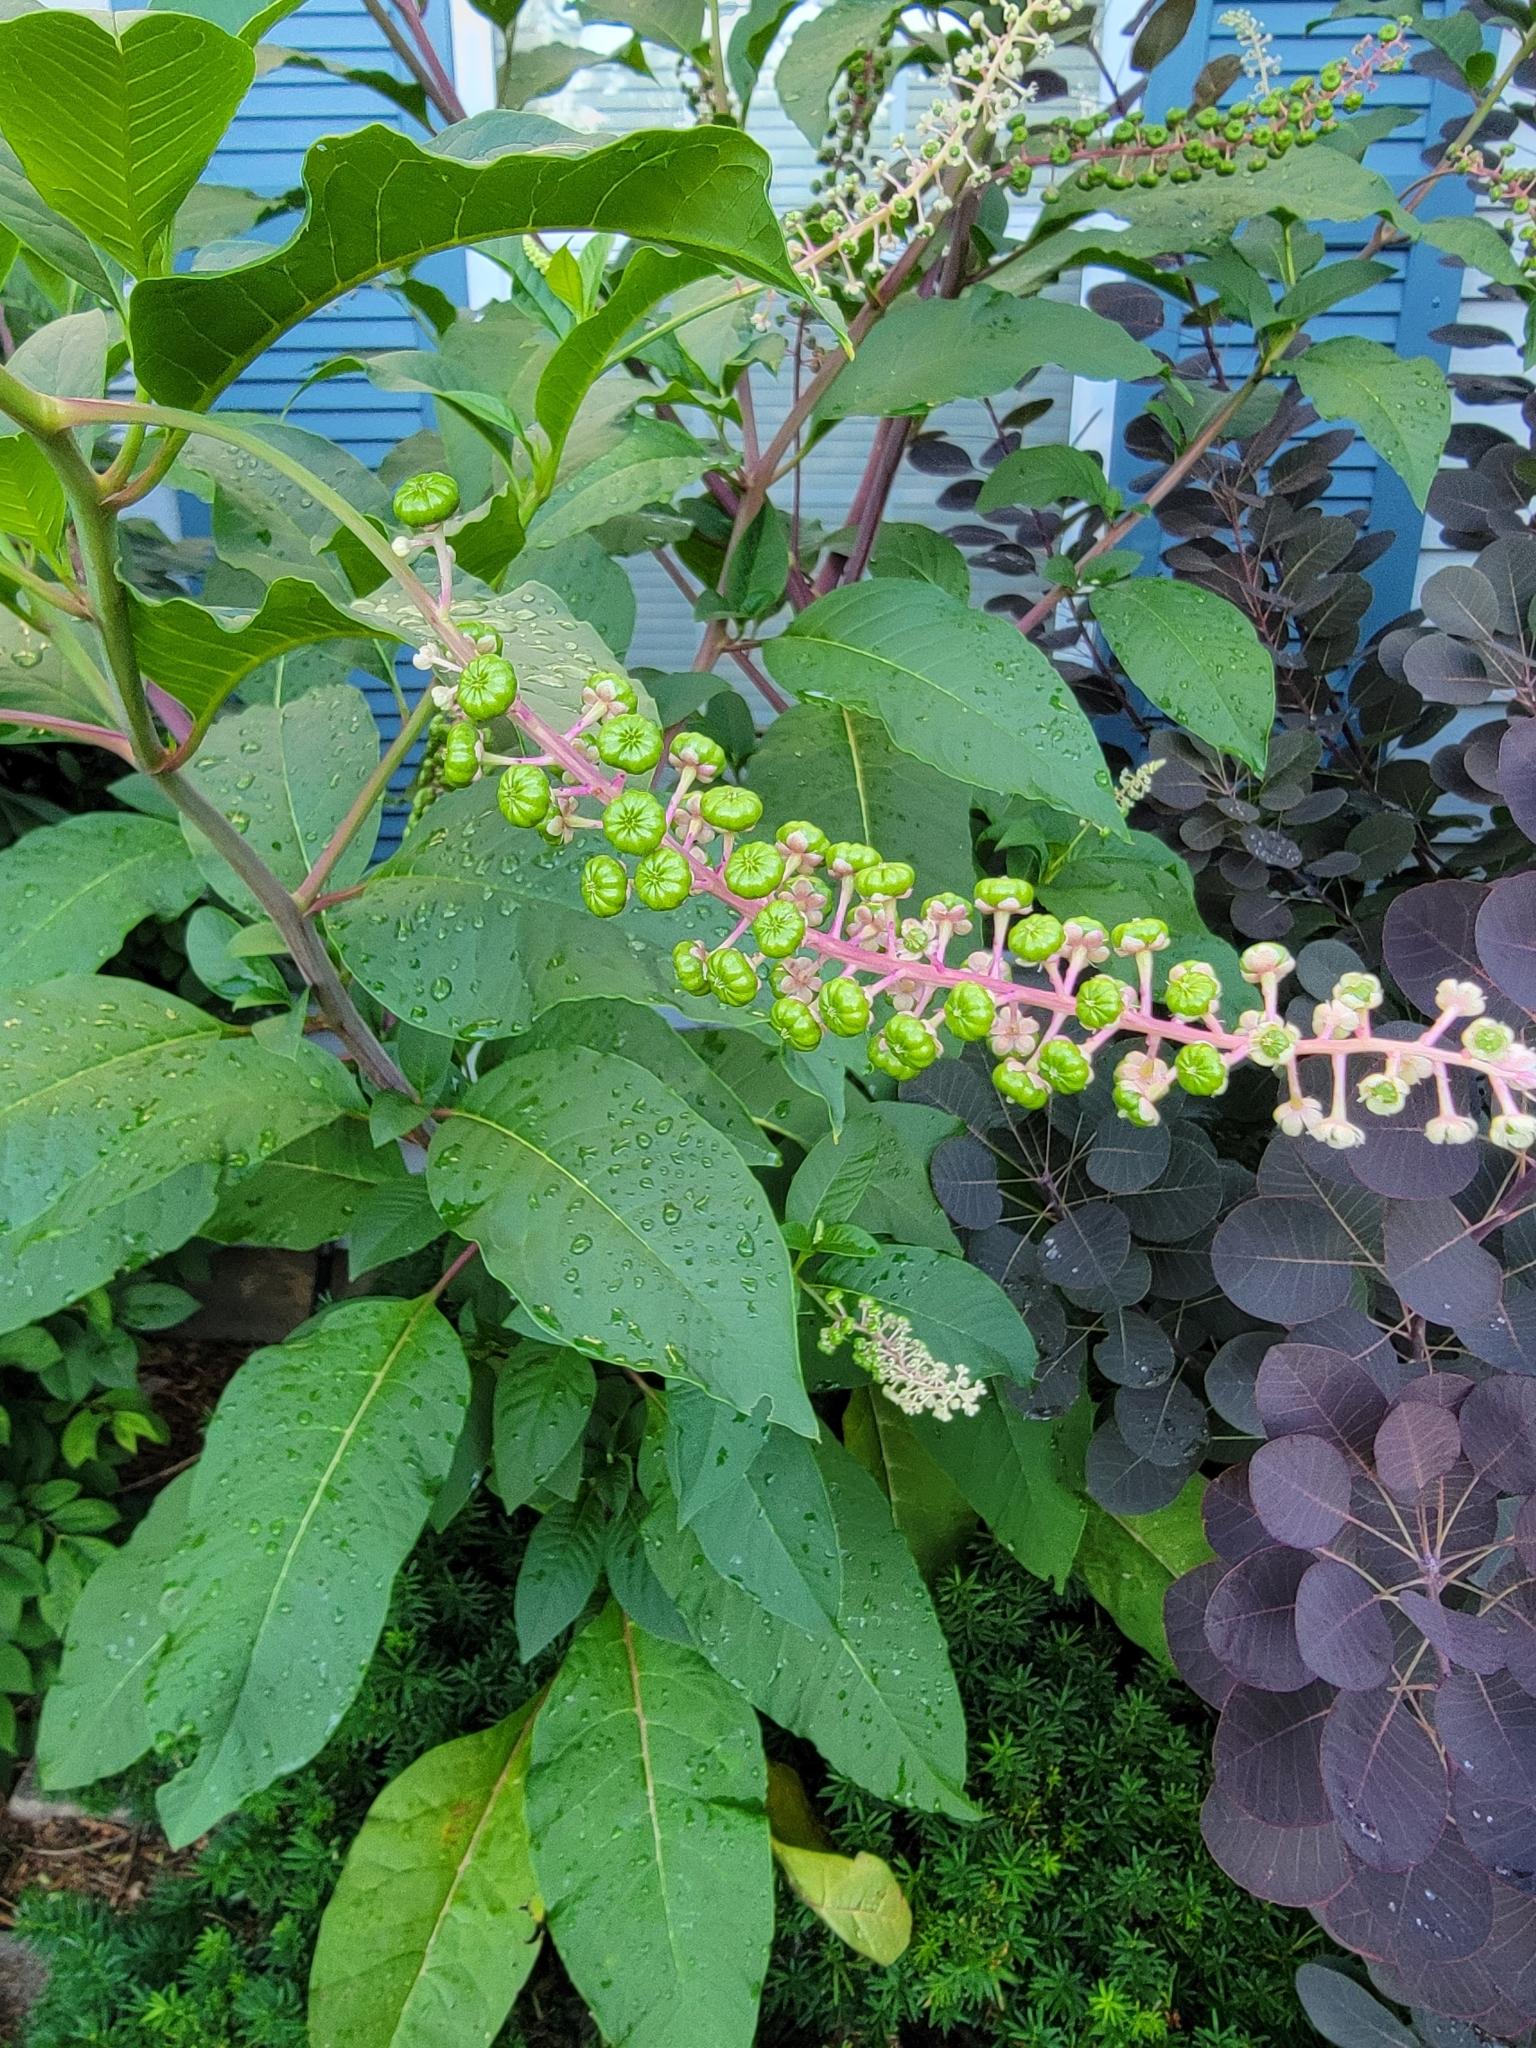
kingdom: Plantae
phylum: Tracheophyta
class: Magnoliopsida
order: Caryophyllales
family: Phytolaccaceae
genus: Phytolacca
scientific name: Phytolacca americana
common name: American pokeweed
